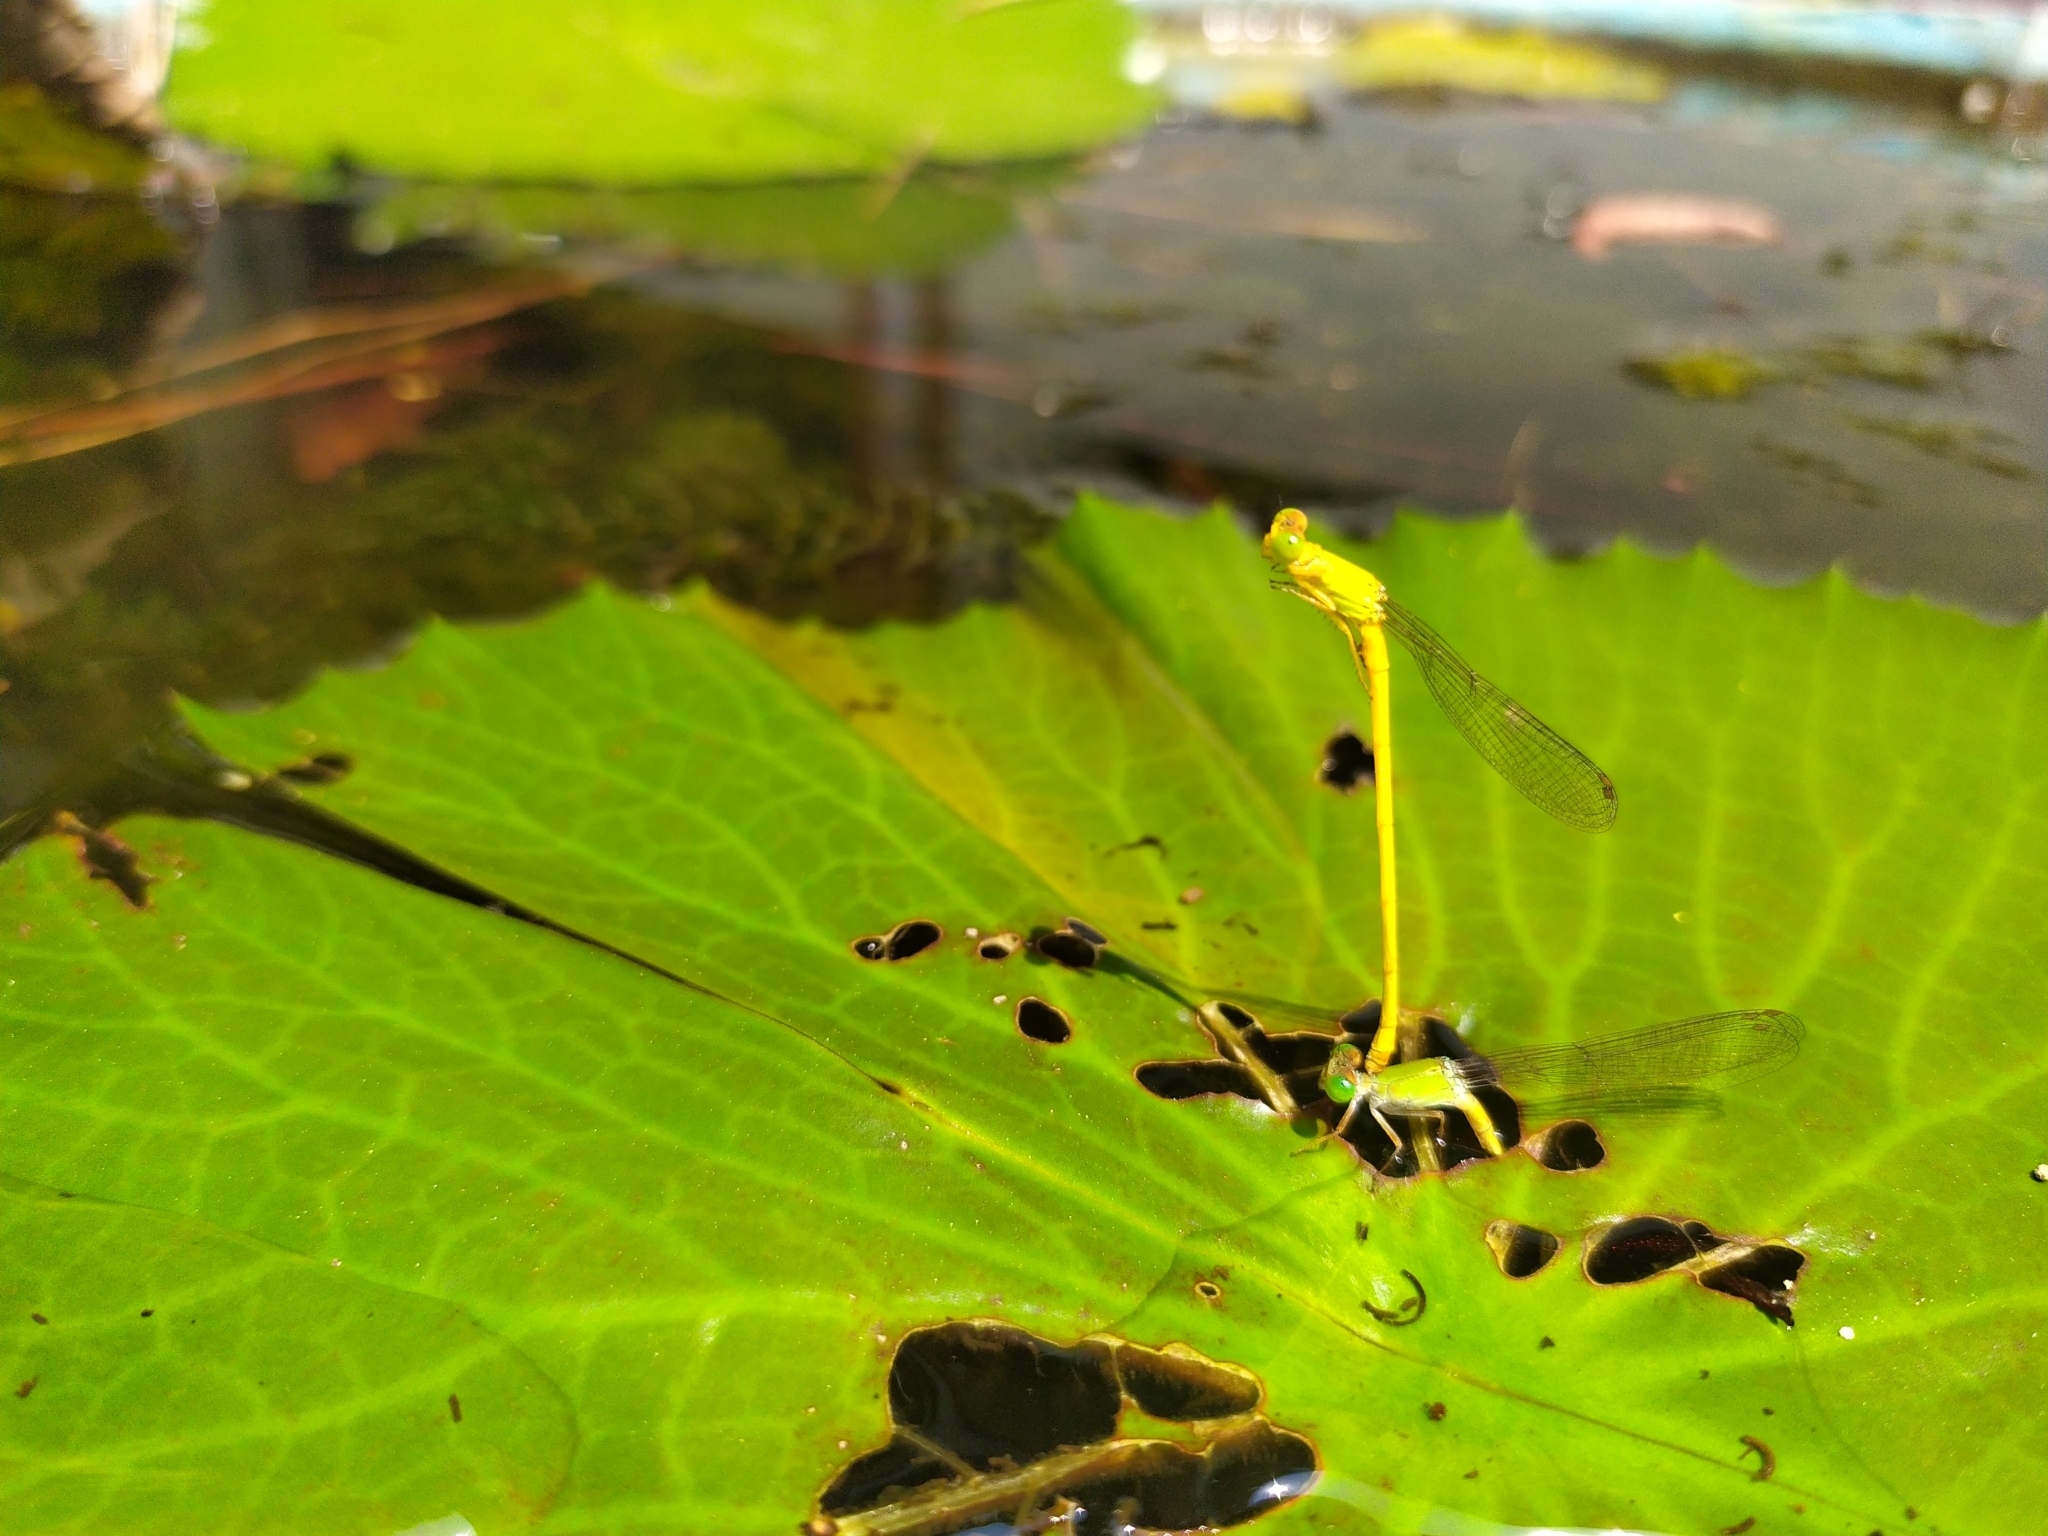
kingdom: Animalia
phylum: Arthropoda
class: Insecta
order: Odonata
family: Coenagrionidae
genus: Ceriagrion
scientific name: Ceriagrion coromandelianum
